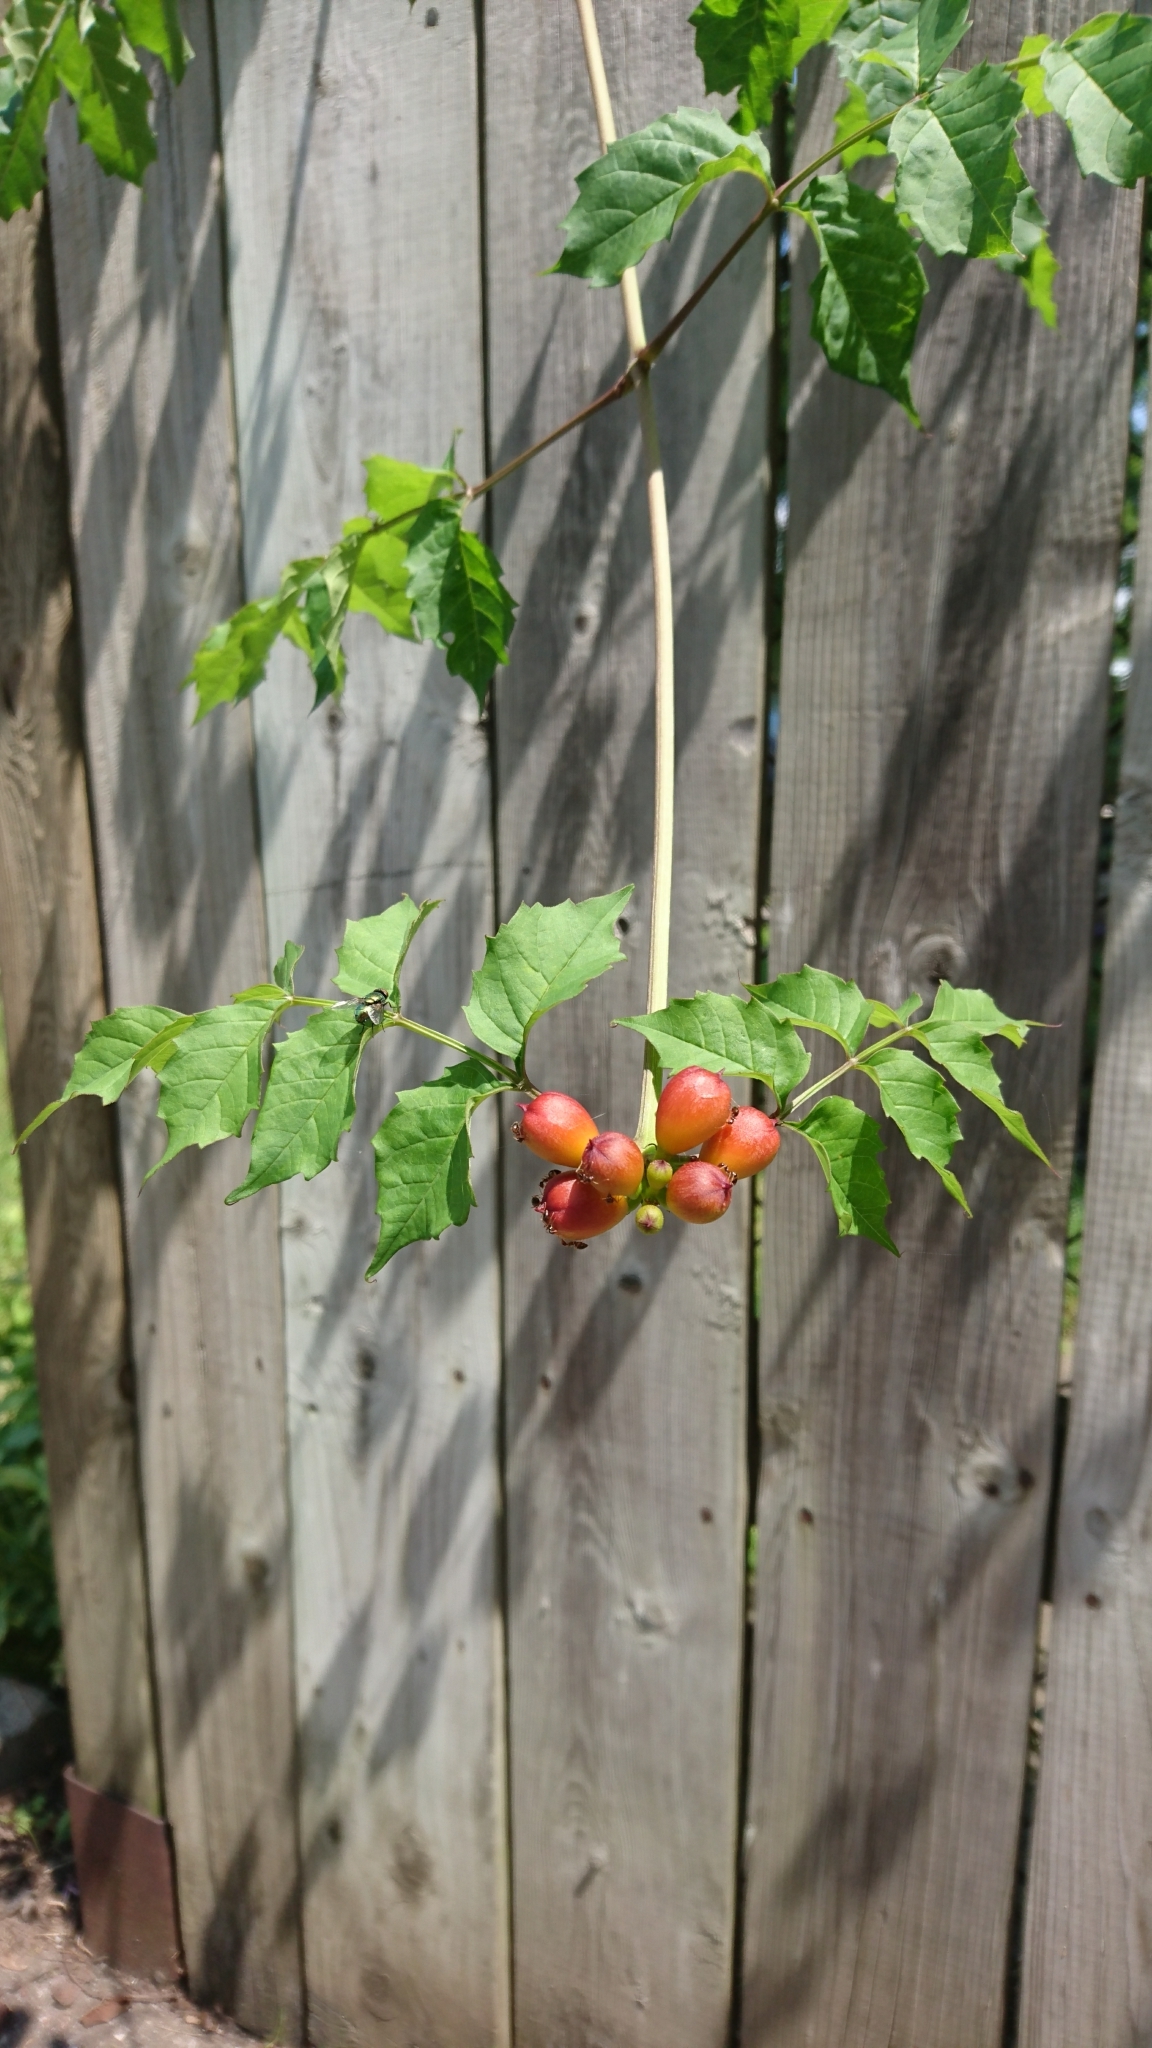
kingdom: Plantae
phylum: Tracheophyta
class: Magnoliopsida
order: Lamiales
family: Bignoniaceae
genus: Campsis
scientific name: Campsis radicans
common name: Trumpet-creeper
